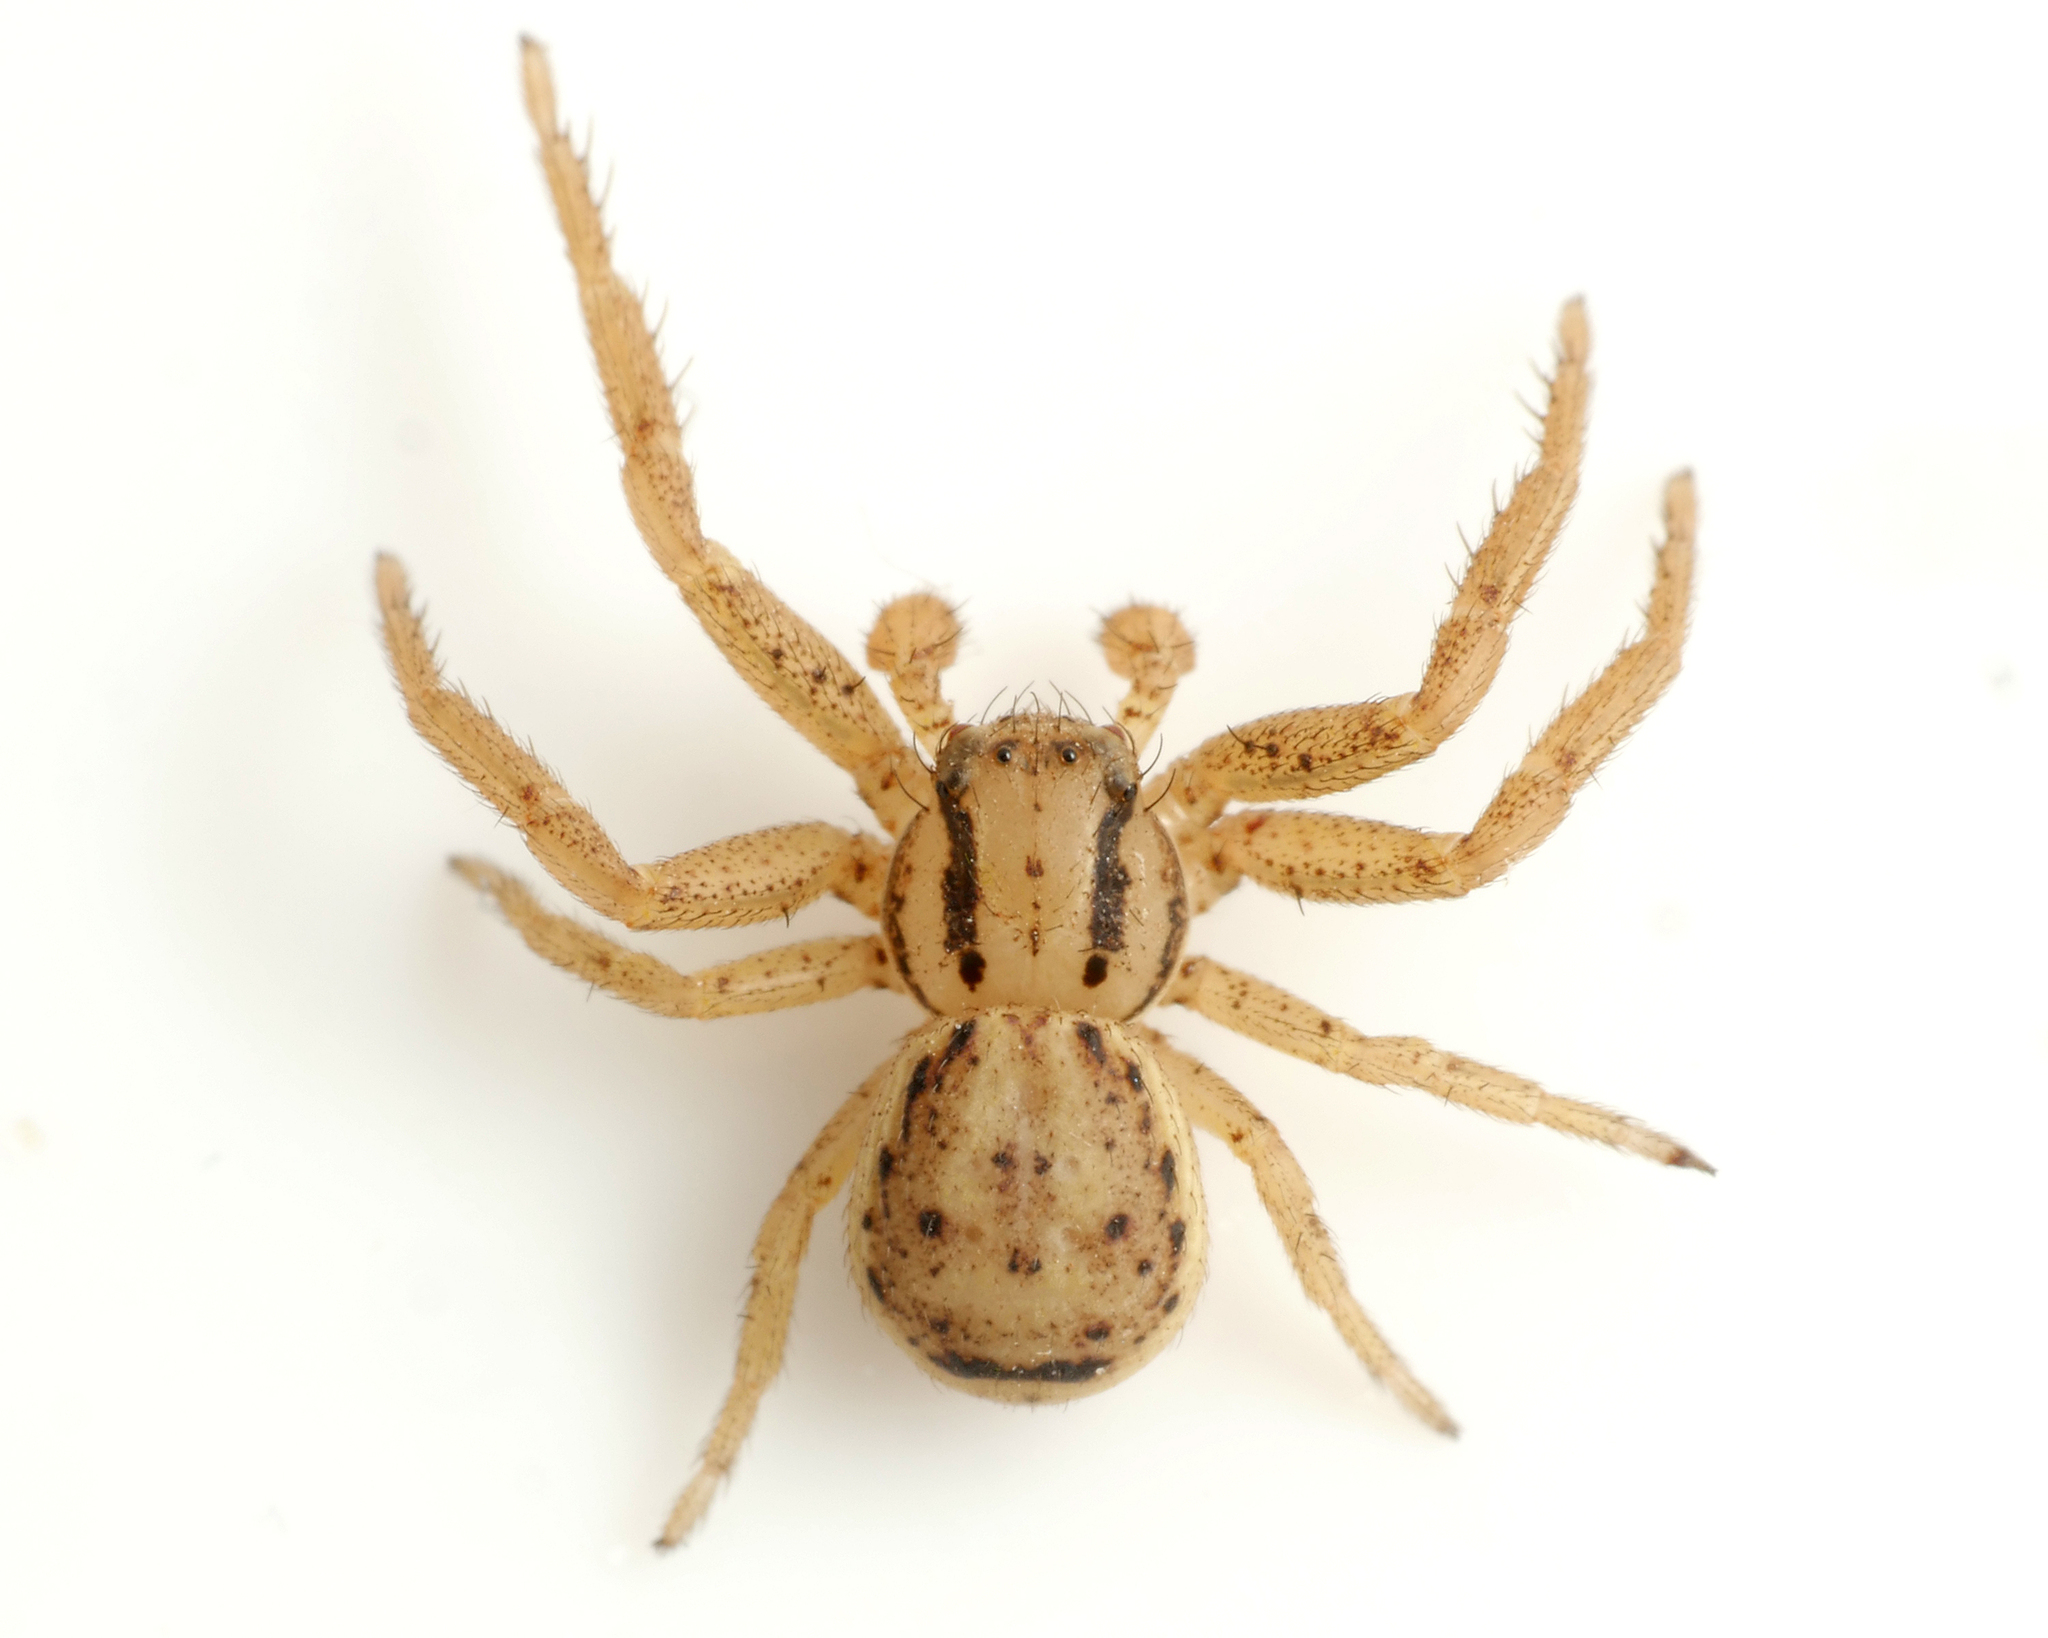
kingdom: Animalia
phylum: Arthropoda
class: Arachnida
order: Araneae
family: Thomisidae
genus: Xysticus
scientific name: Xysticus erraticus
